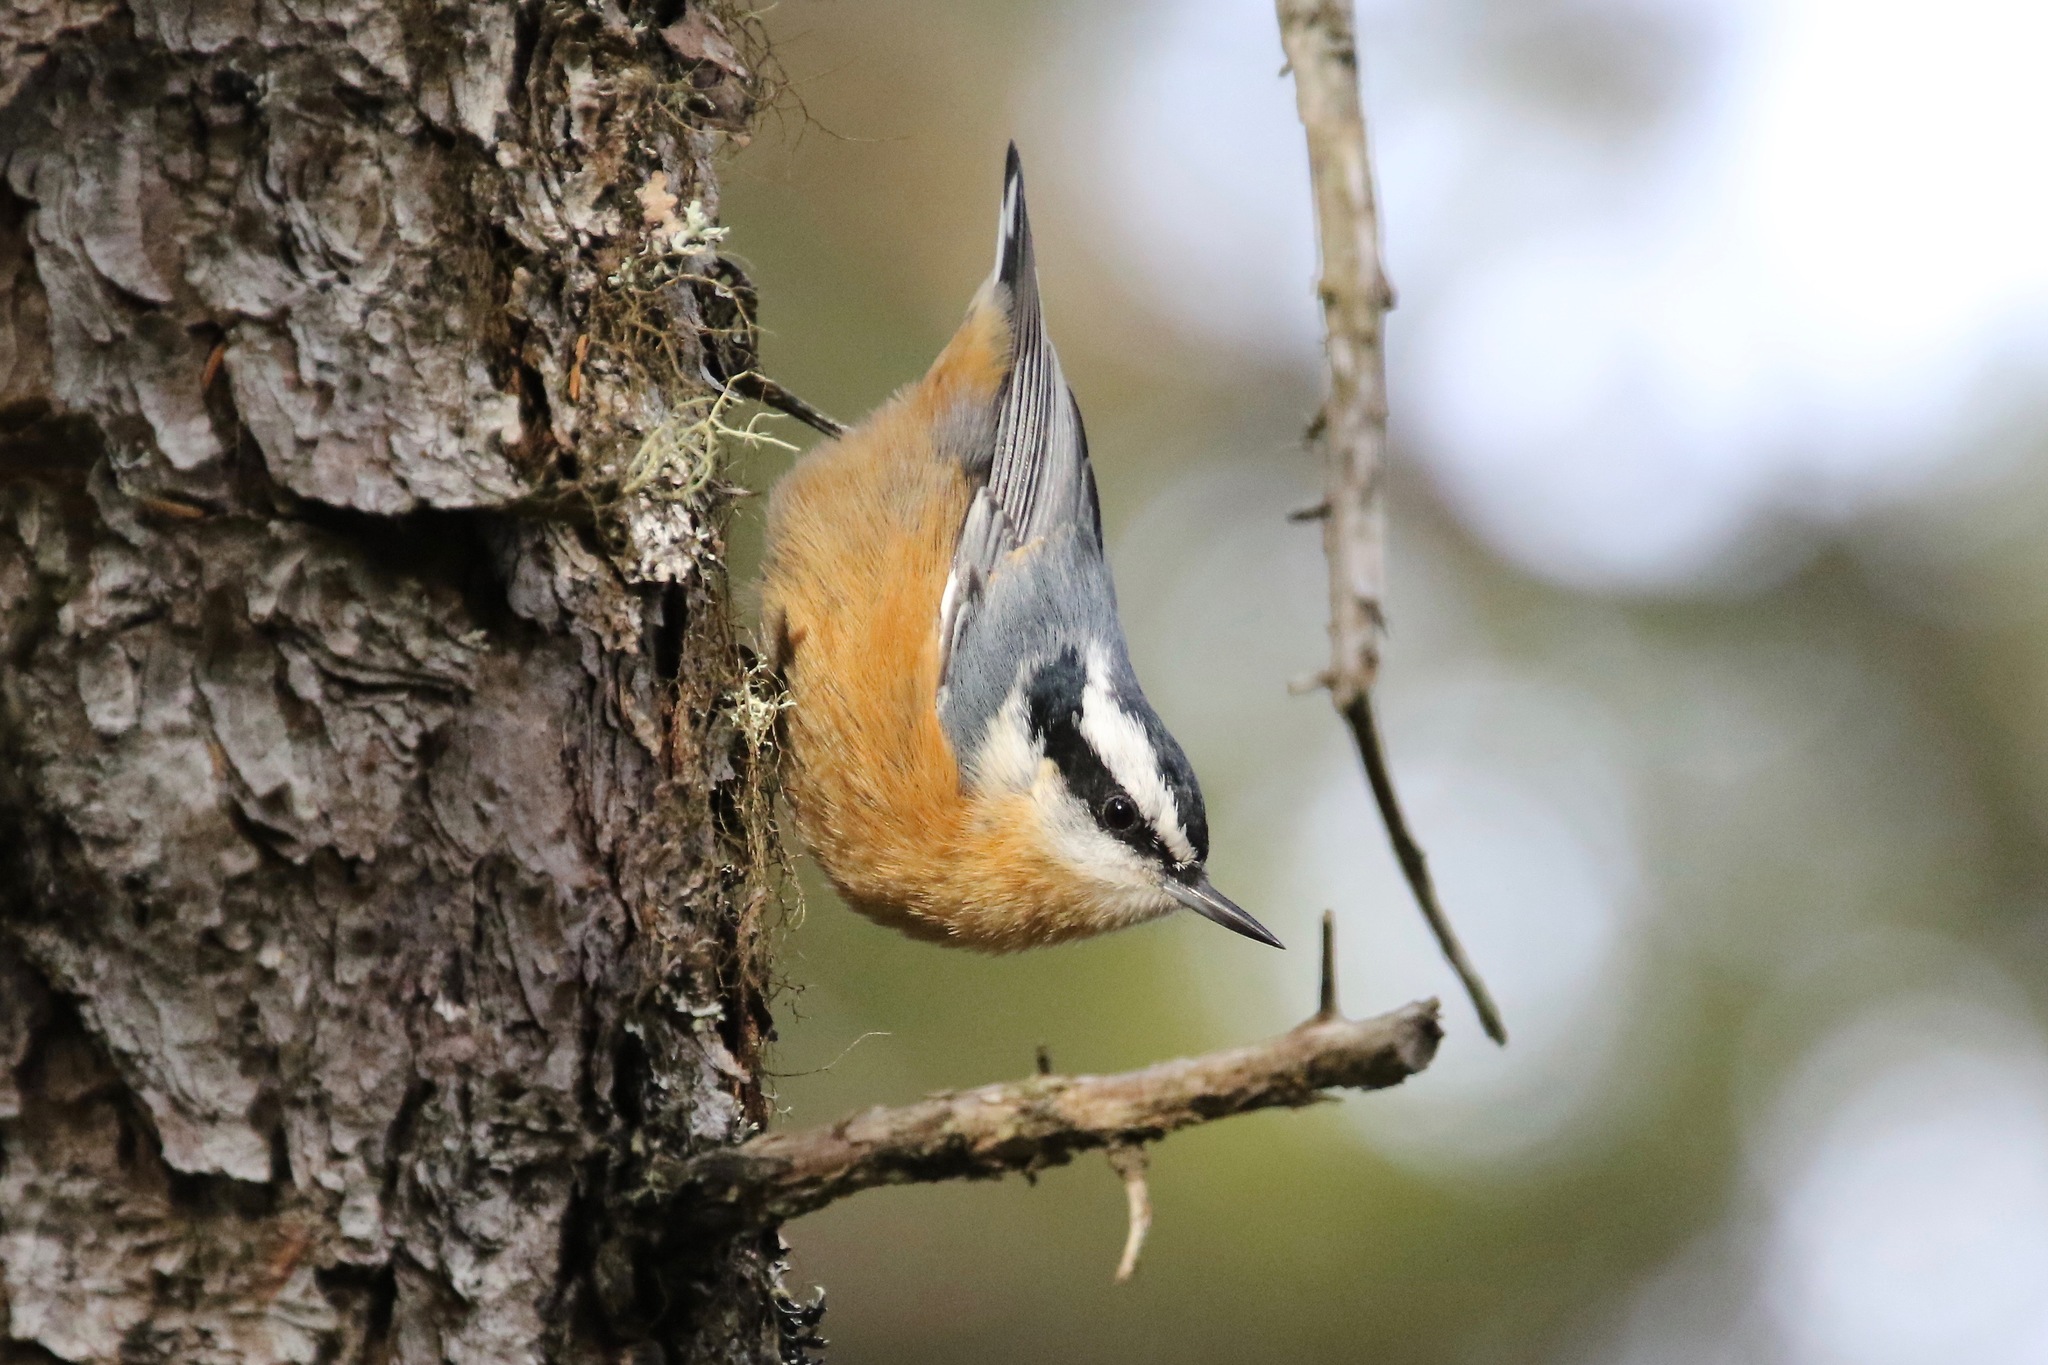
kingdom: Animalia
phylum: Chordata
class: Aves
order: Passeriformes
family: Sittidae
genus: Sitta
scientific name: Sitta canadensis
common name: Red-breasted nuthatch
